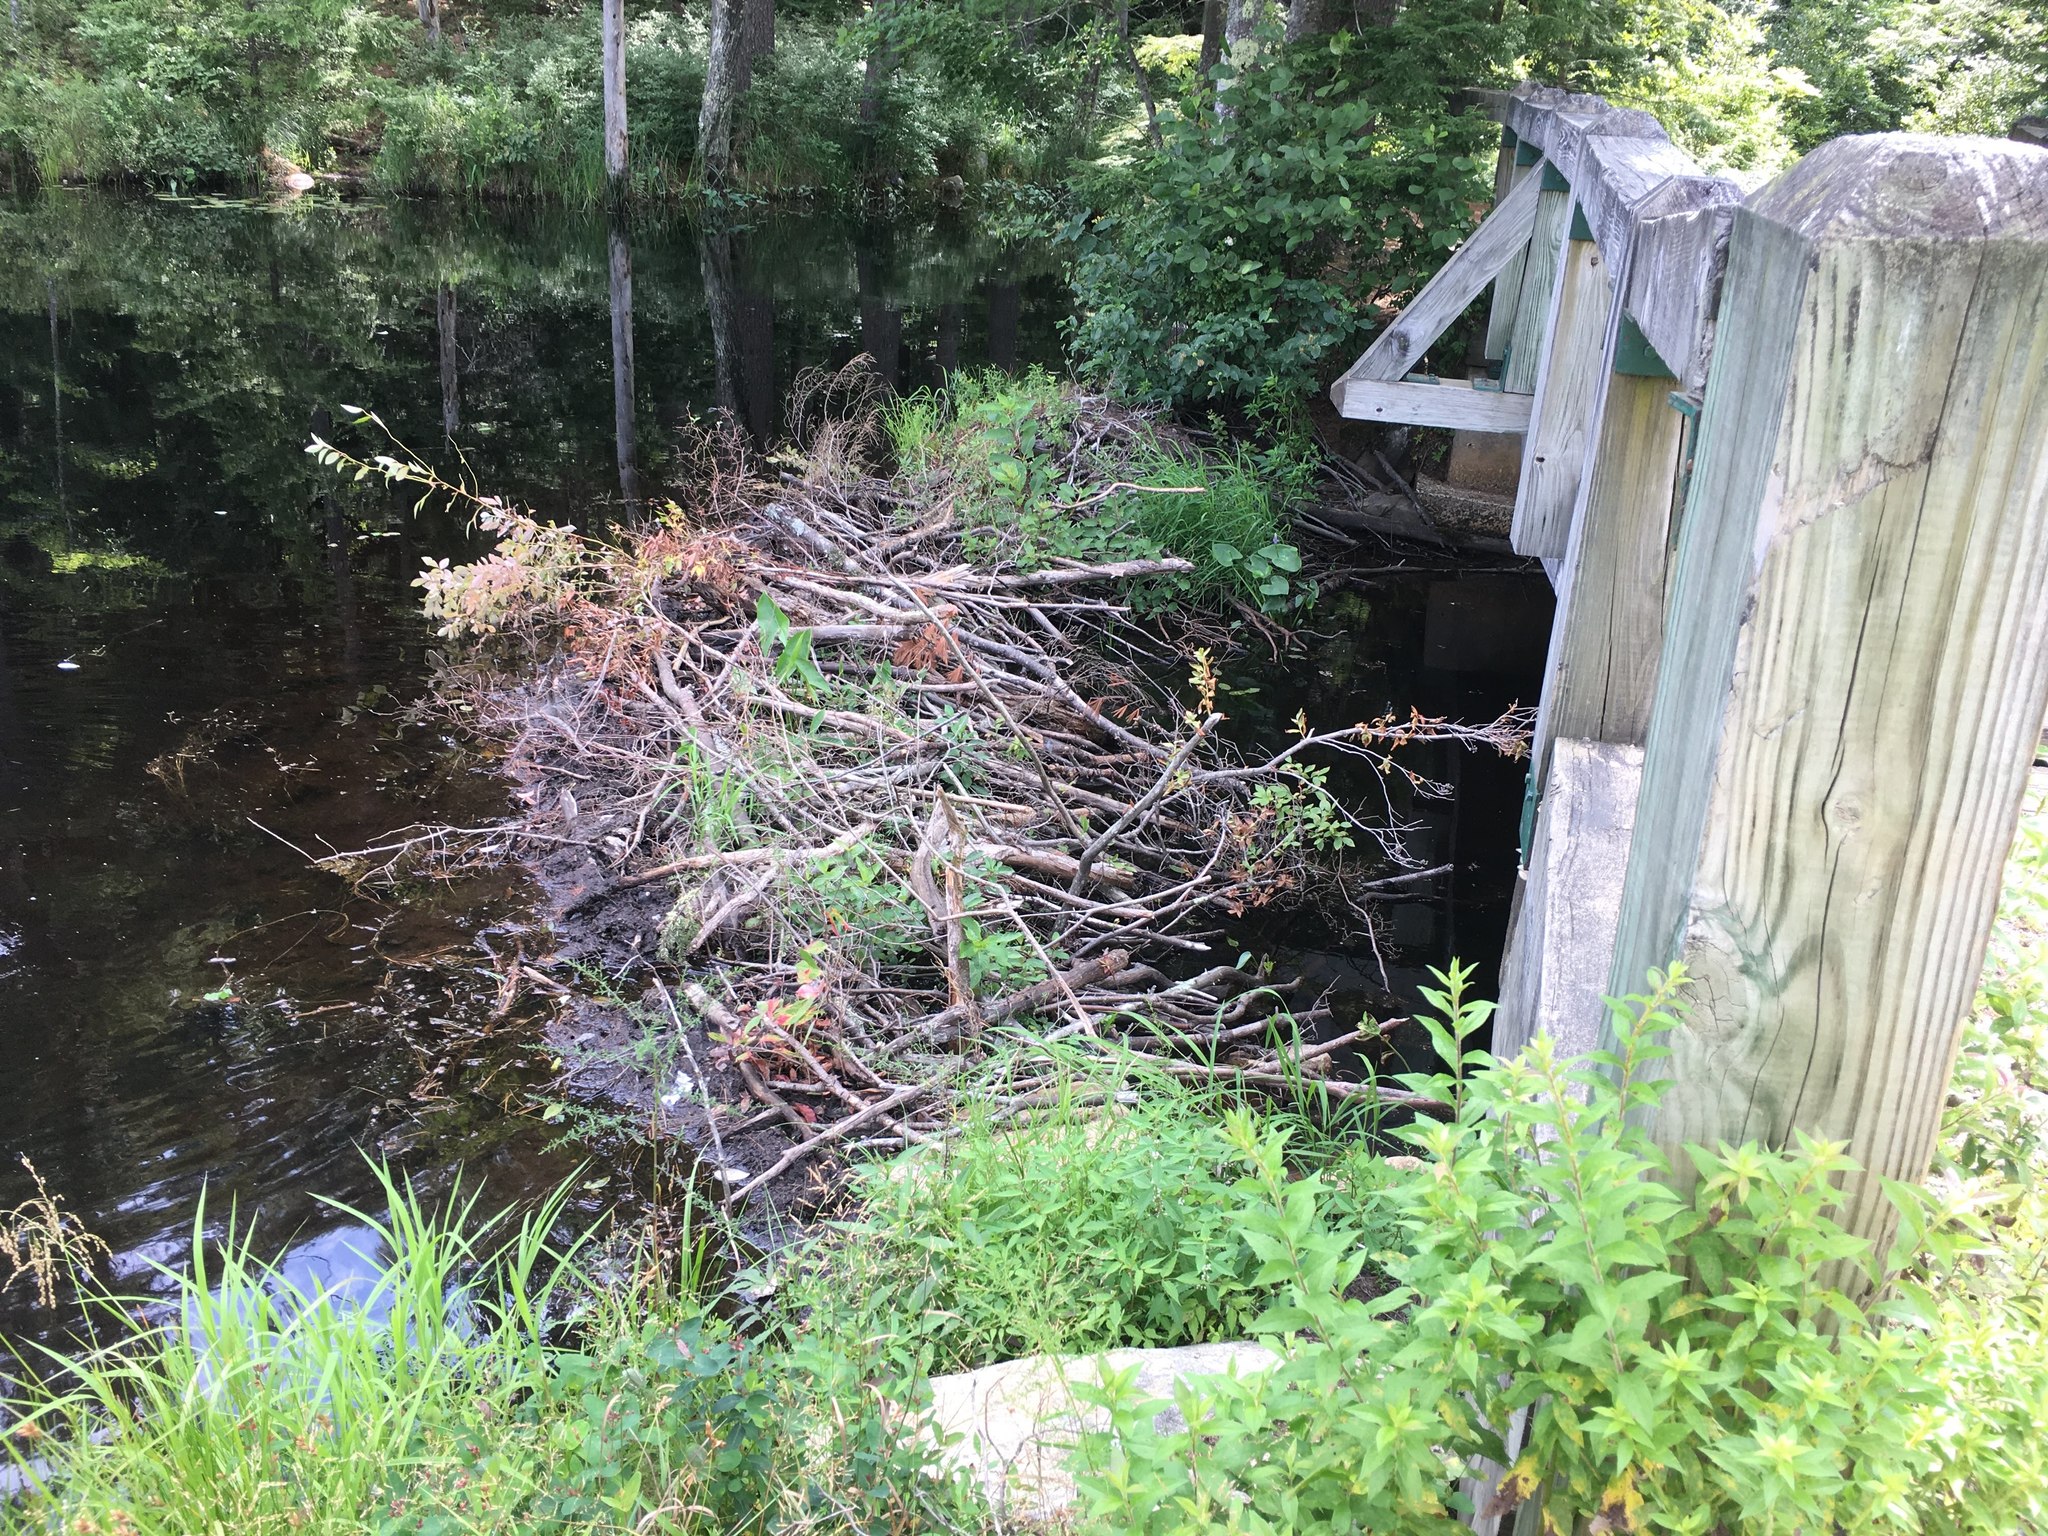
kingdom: Animalia
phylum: Chordata
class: Mammalia
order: Rodentia
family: Castoridae
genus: Castor
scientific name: Castor canadensis
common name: American beaver
